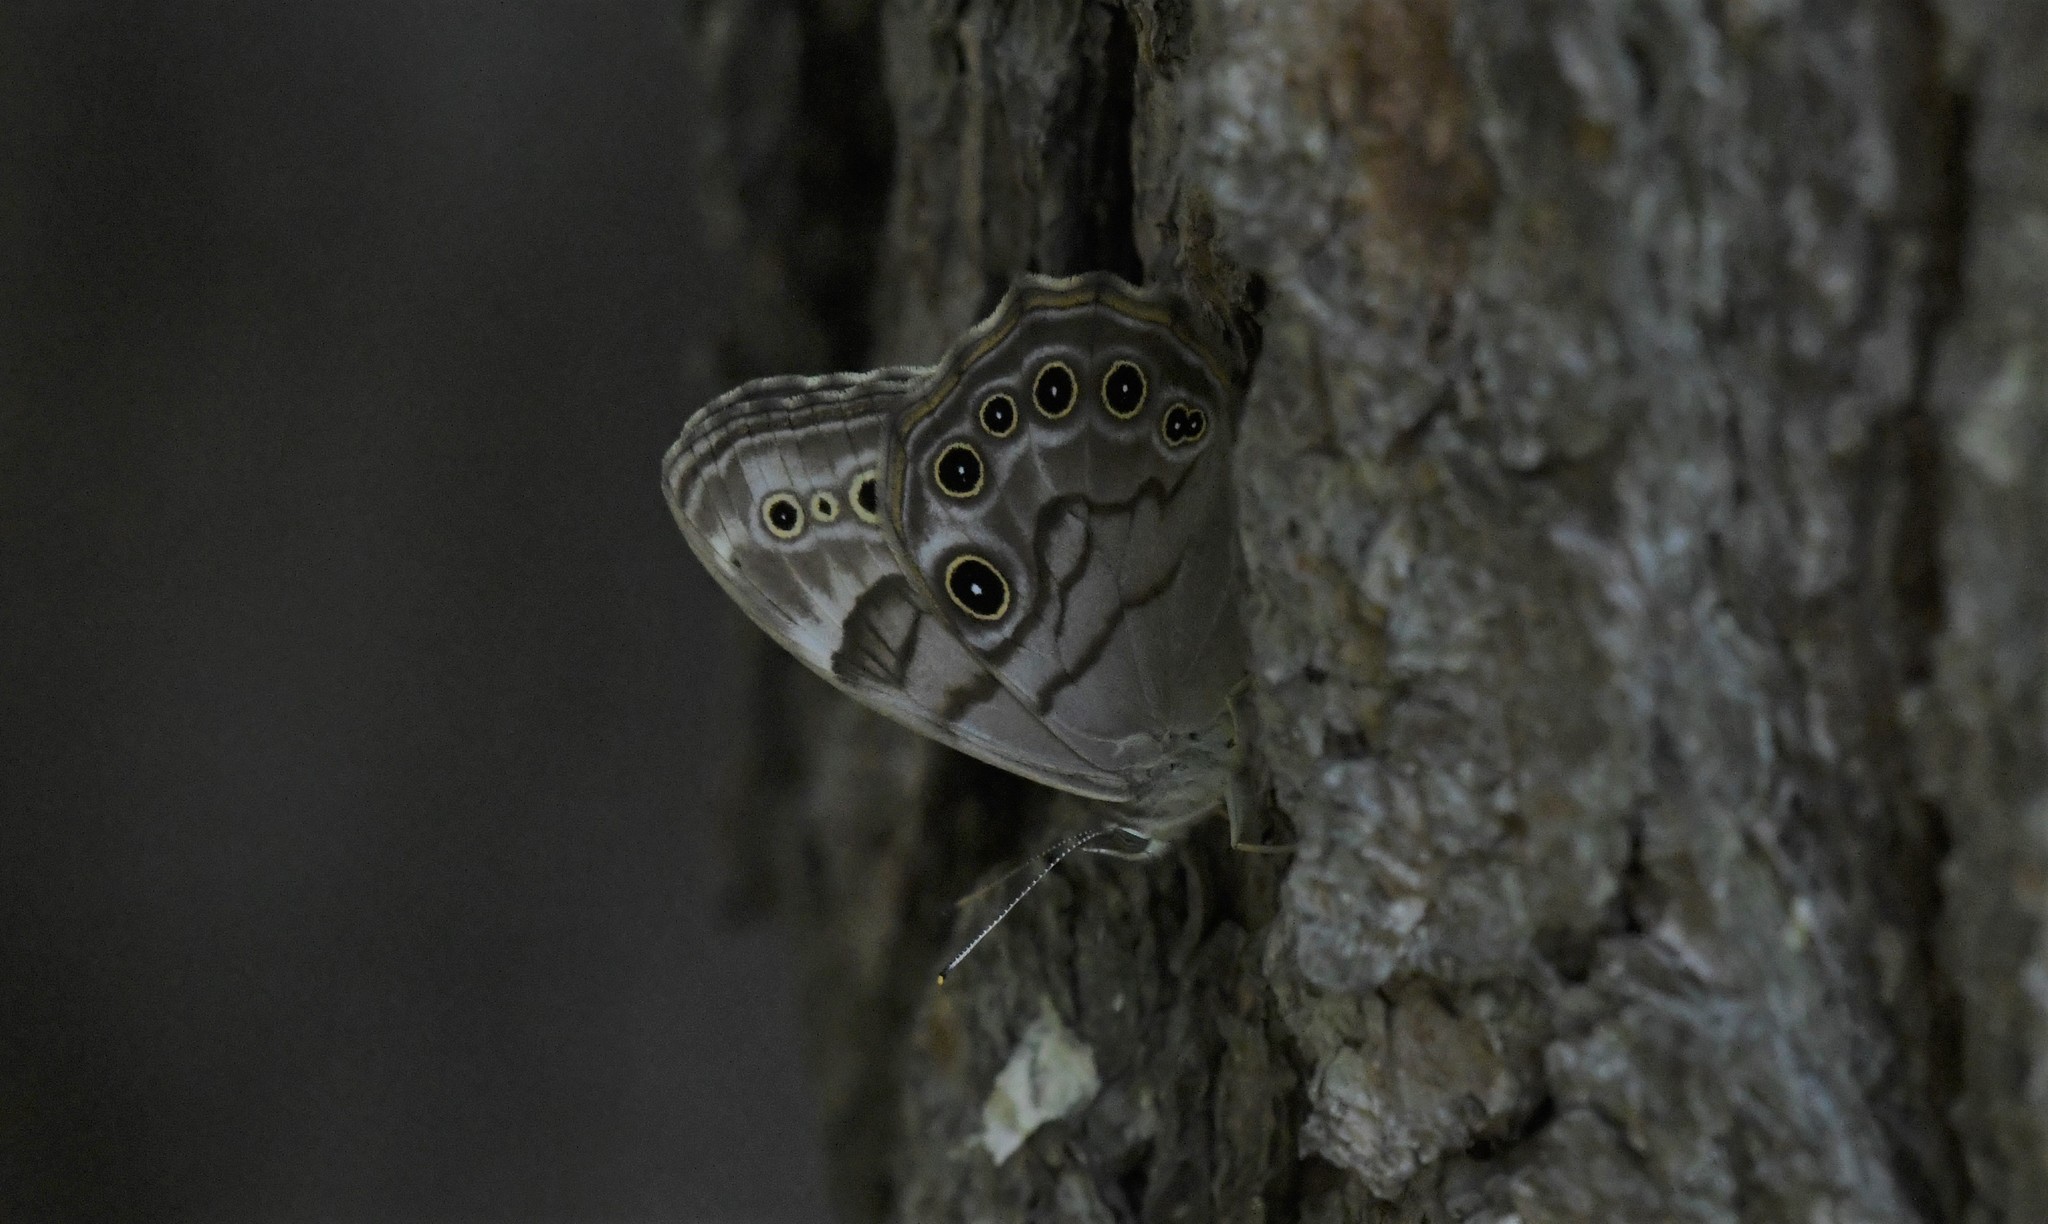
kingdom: Animalia
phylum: Arthropoda
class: Insecta
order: Lepidoptera
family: Nymphalidae
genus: Lethe
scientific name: Lethe anthedon
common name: Northern pearly-eye
